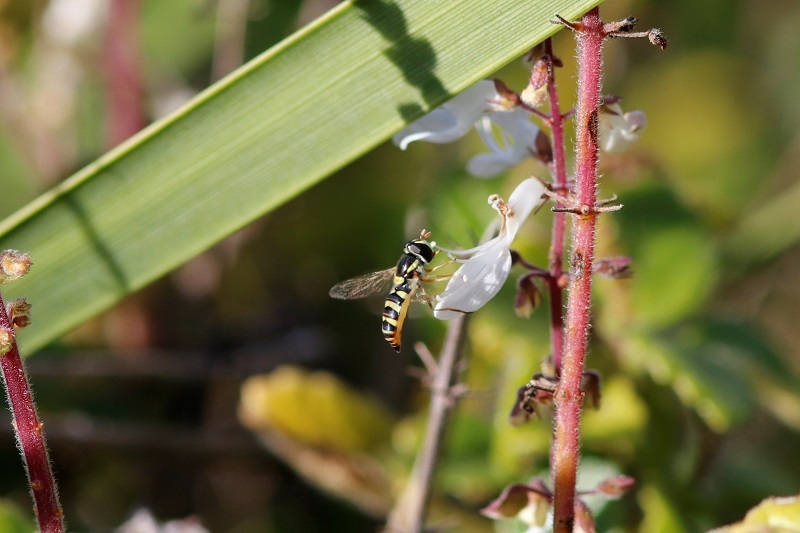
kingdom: Animalia
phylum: Arthropoda
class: Insecta
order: Diptera
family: Syrphidae
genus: Ischiodon
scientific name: Ischiodon aegyptius
